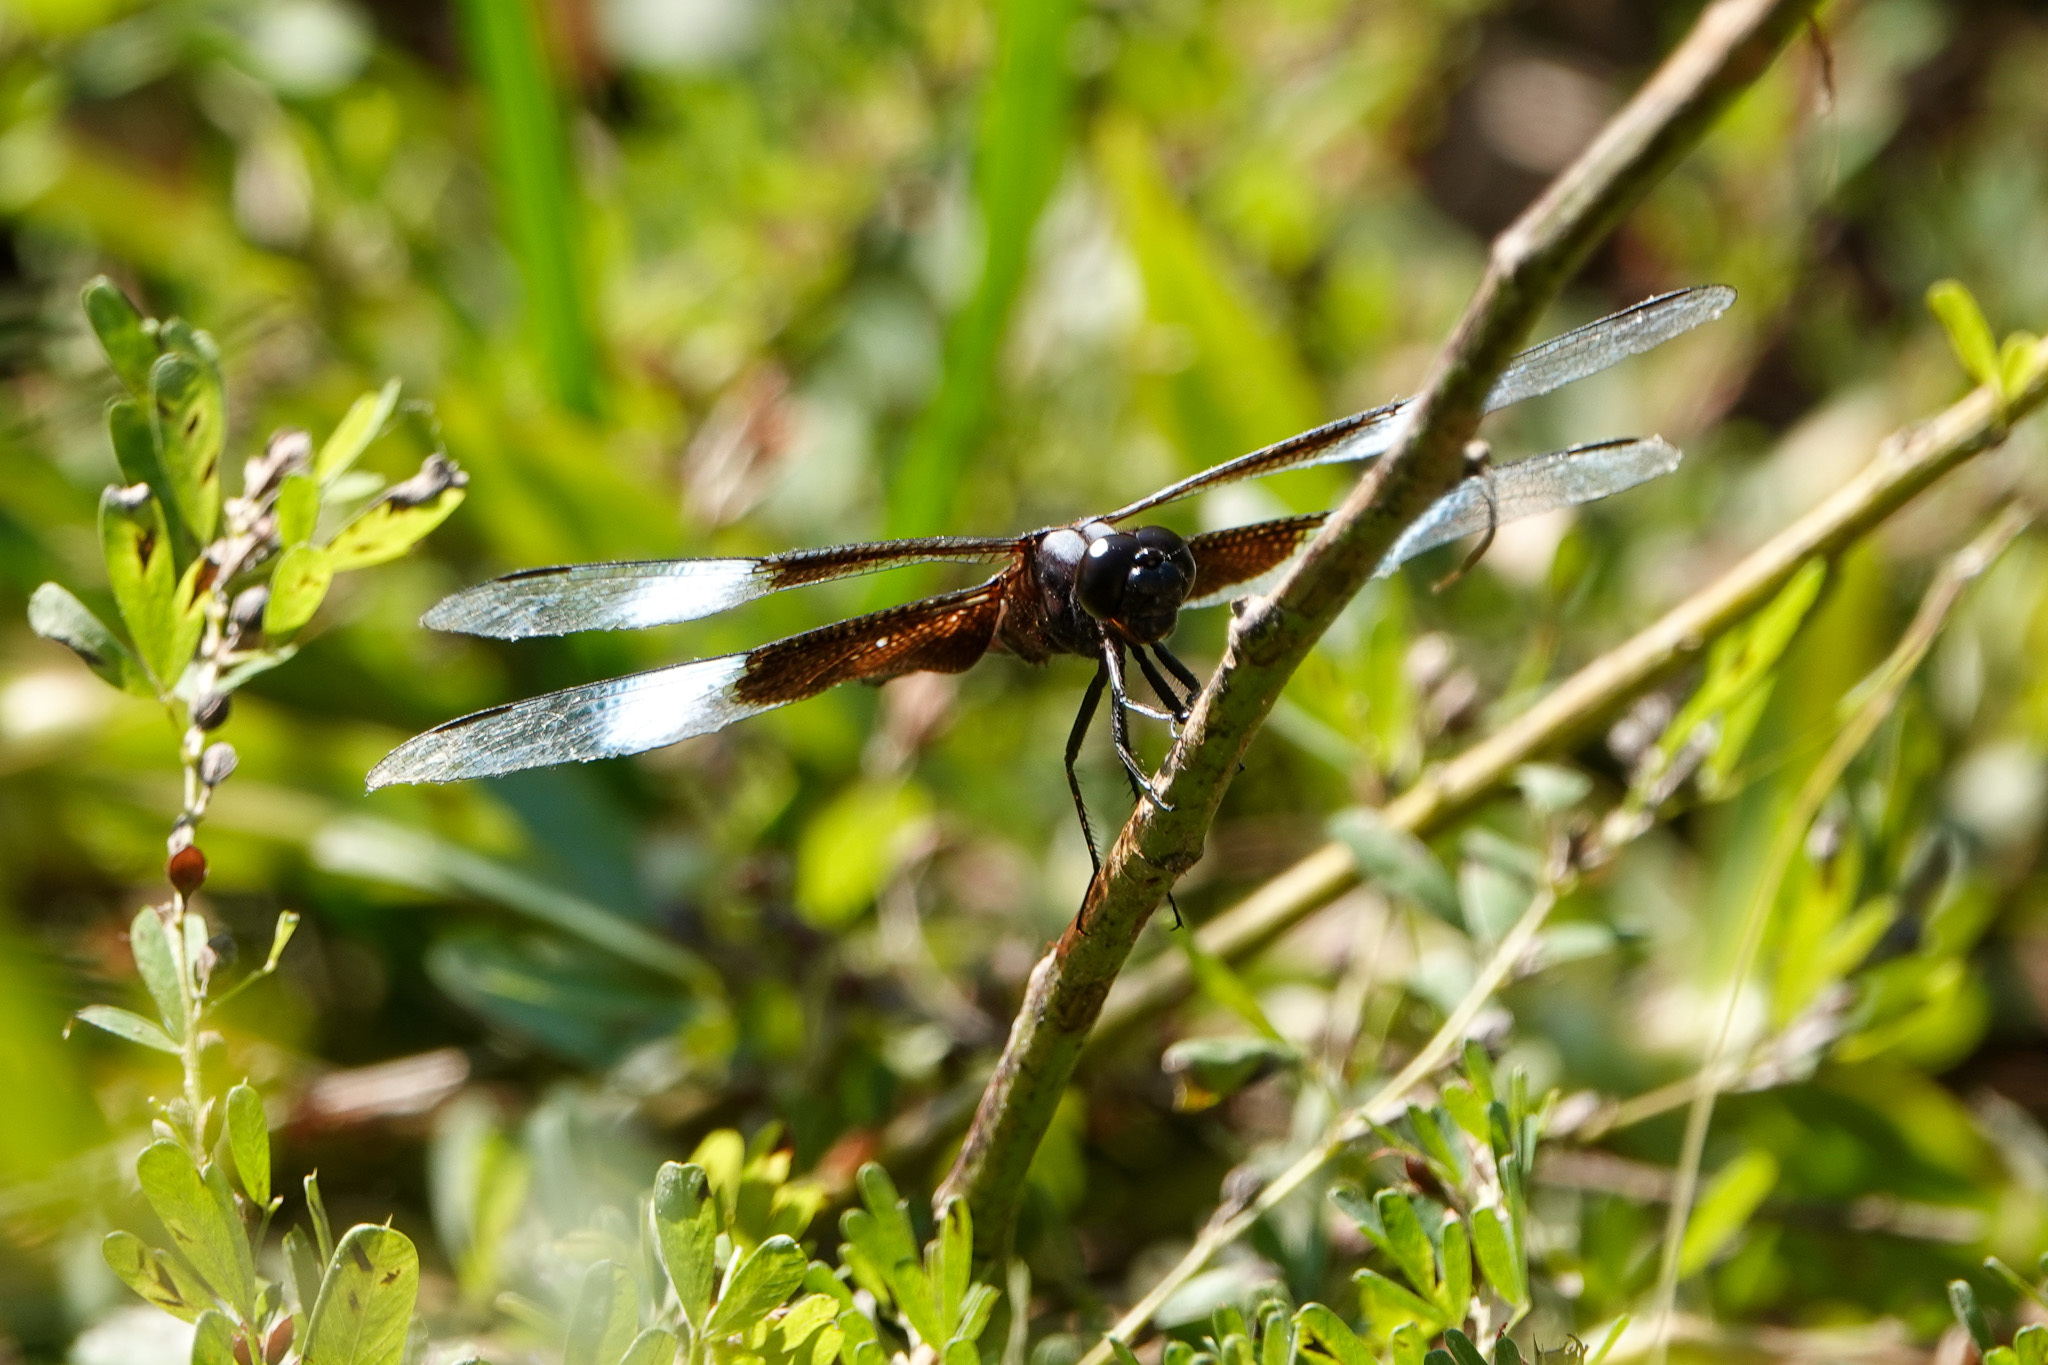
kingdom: Animalia
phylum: Arthropoda
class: Insecta
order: Odonata
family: Libellulidae
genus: Libellula
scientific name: Libellula luctuosa
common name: Widow skimmer
